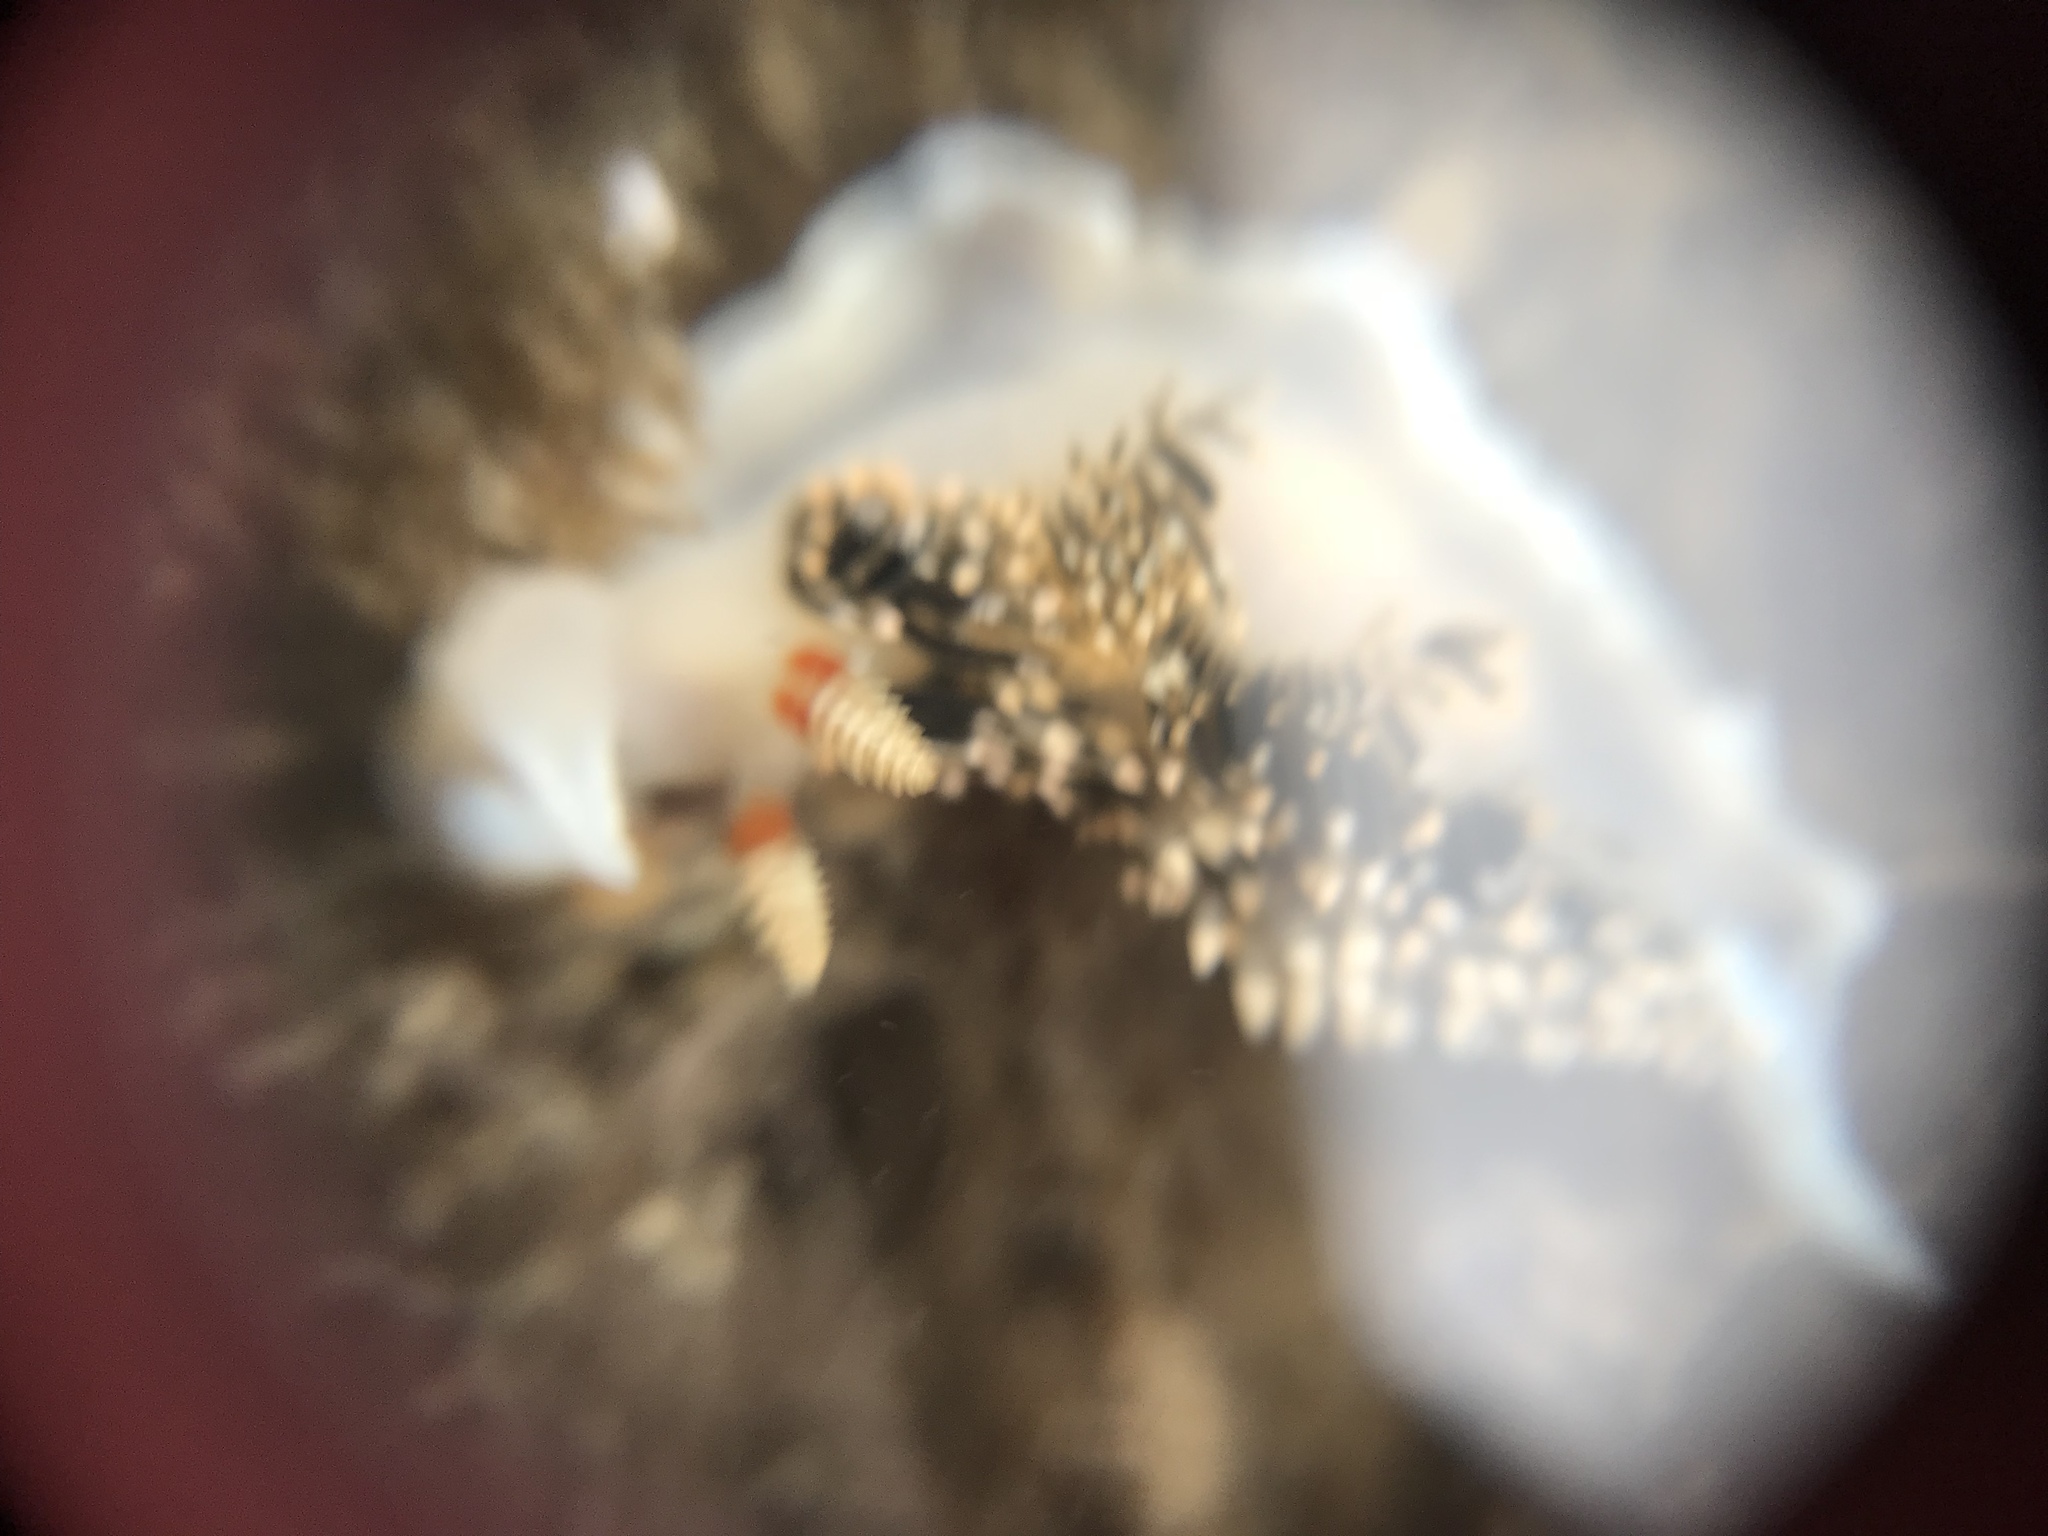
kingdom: Animalia
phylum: Mollusca
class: Gastropoda
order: Nudibranchia
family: Facelinidae
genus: Phidiana
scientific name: Phidiana hiltoni
